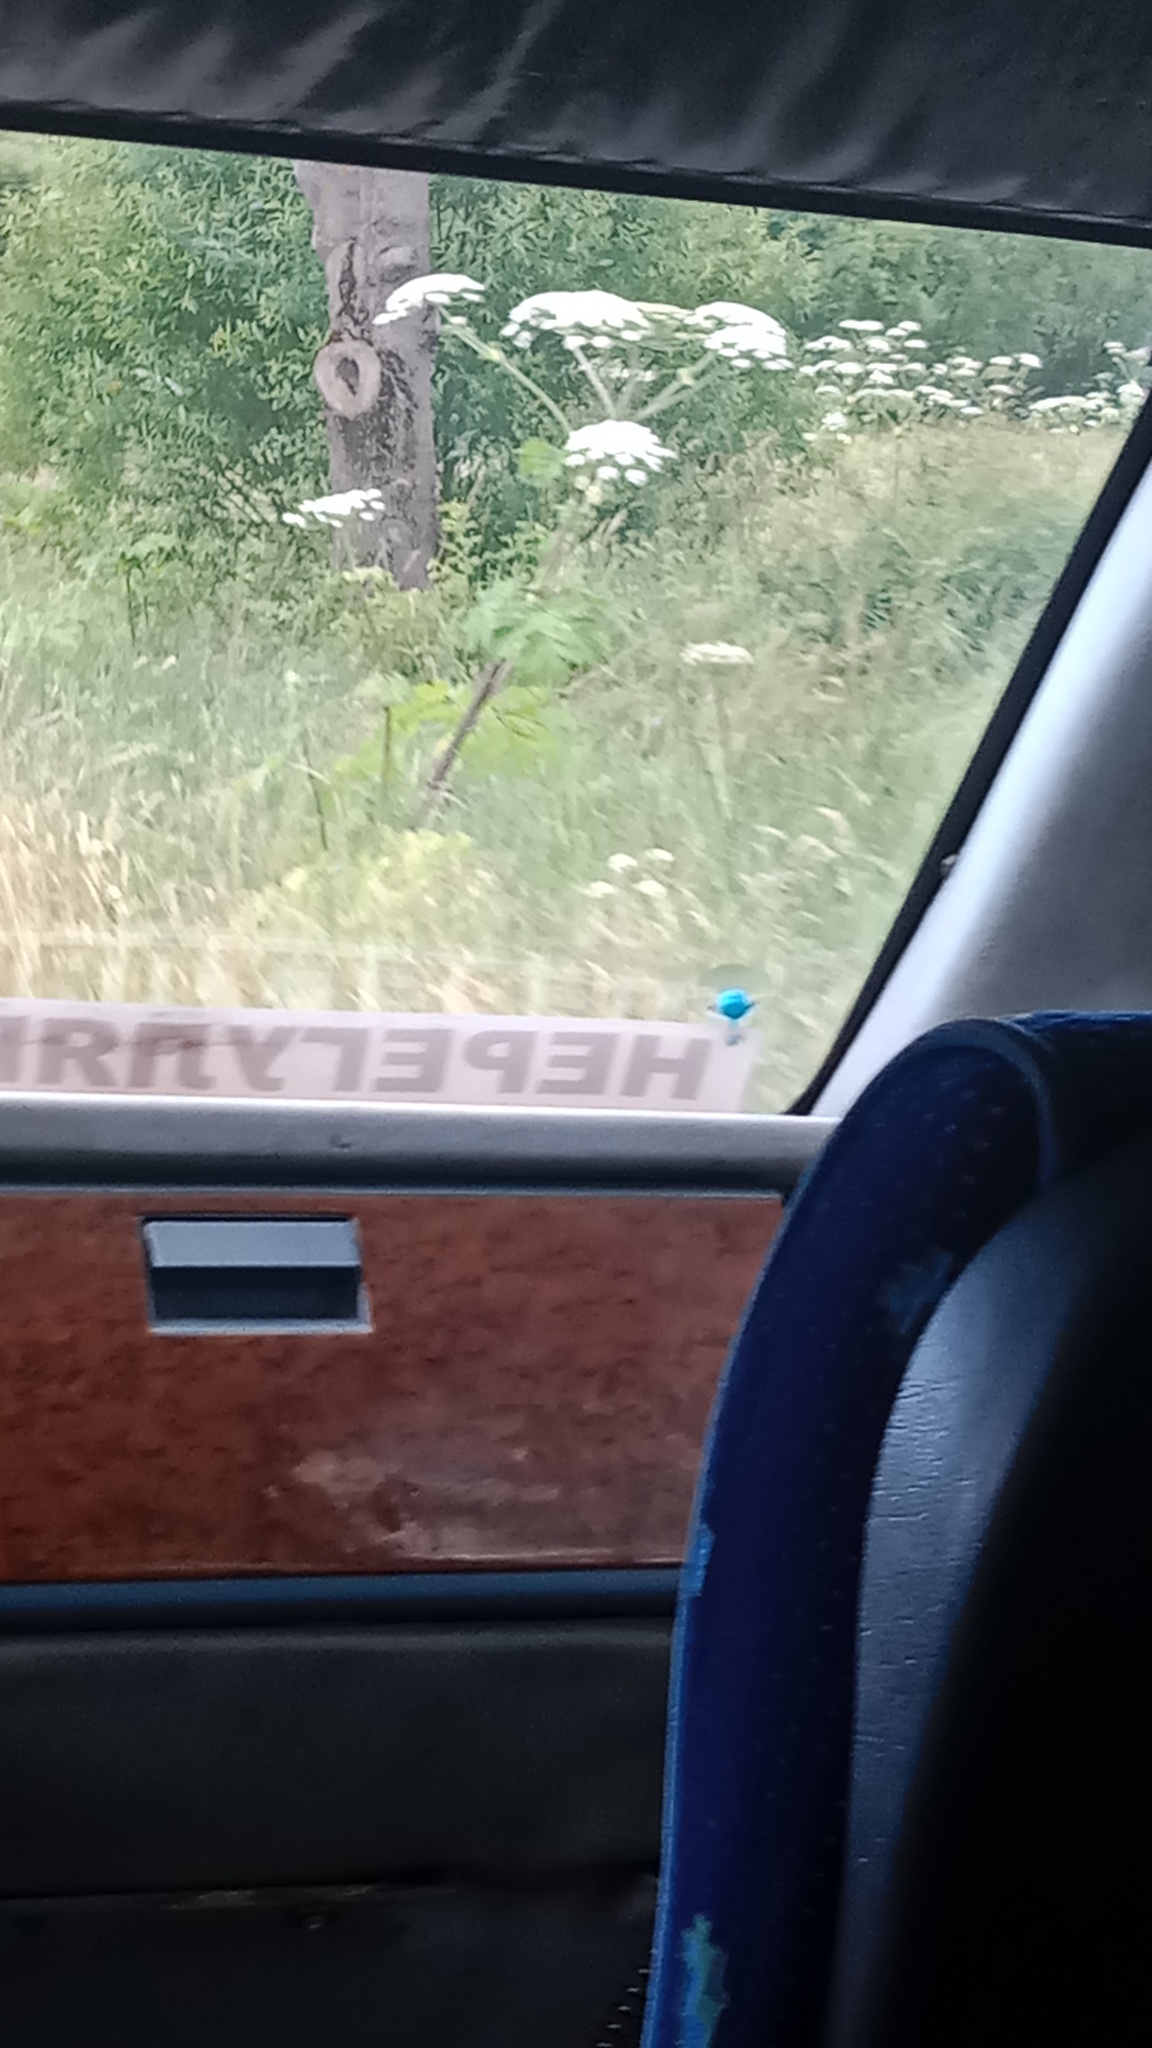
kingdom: Plantae
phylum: Tracheophyta
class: Magnoliopsida
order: Apiales
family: Apiaceae
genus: Heracleum
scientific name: Heracleum sosnowskyi
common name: Sosnowsky's hogweed
